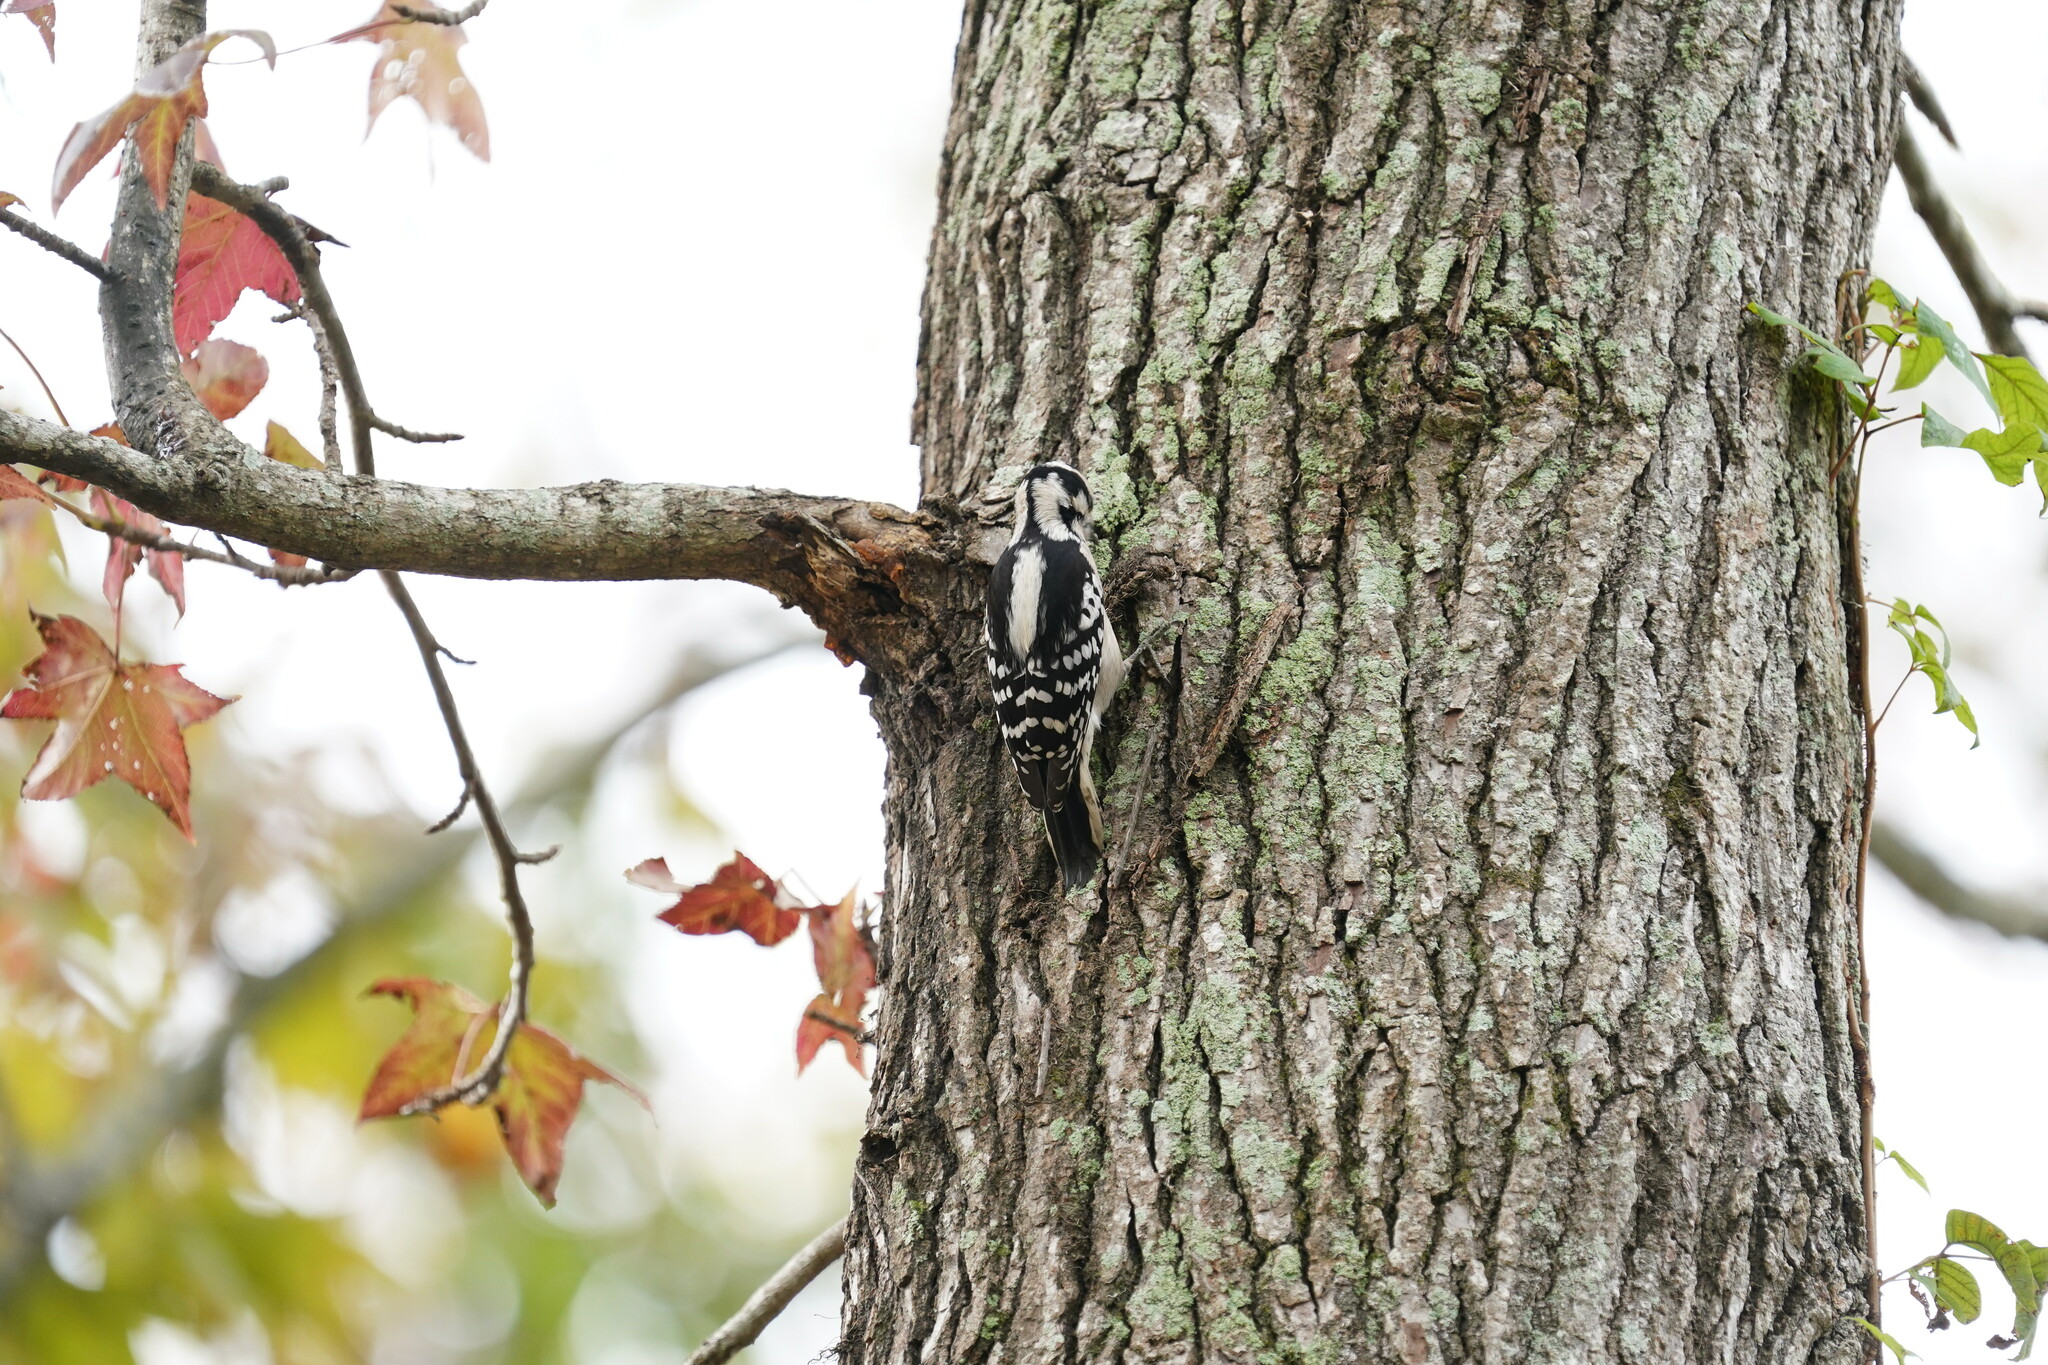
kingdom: Animalia
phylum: Chordata
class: Aves
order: Piciformes
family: Picidae
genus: Dryobates
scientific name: Dryobates pubescens
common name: Downy woodpecker
